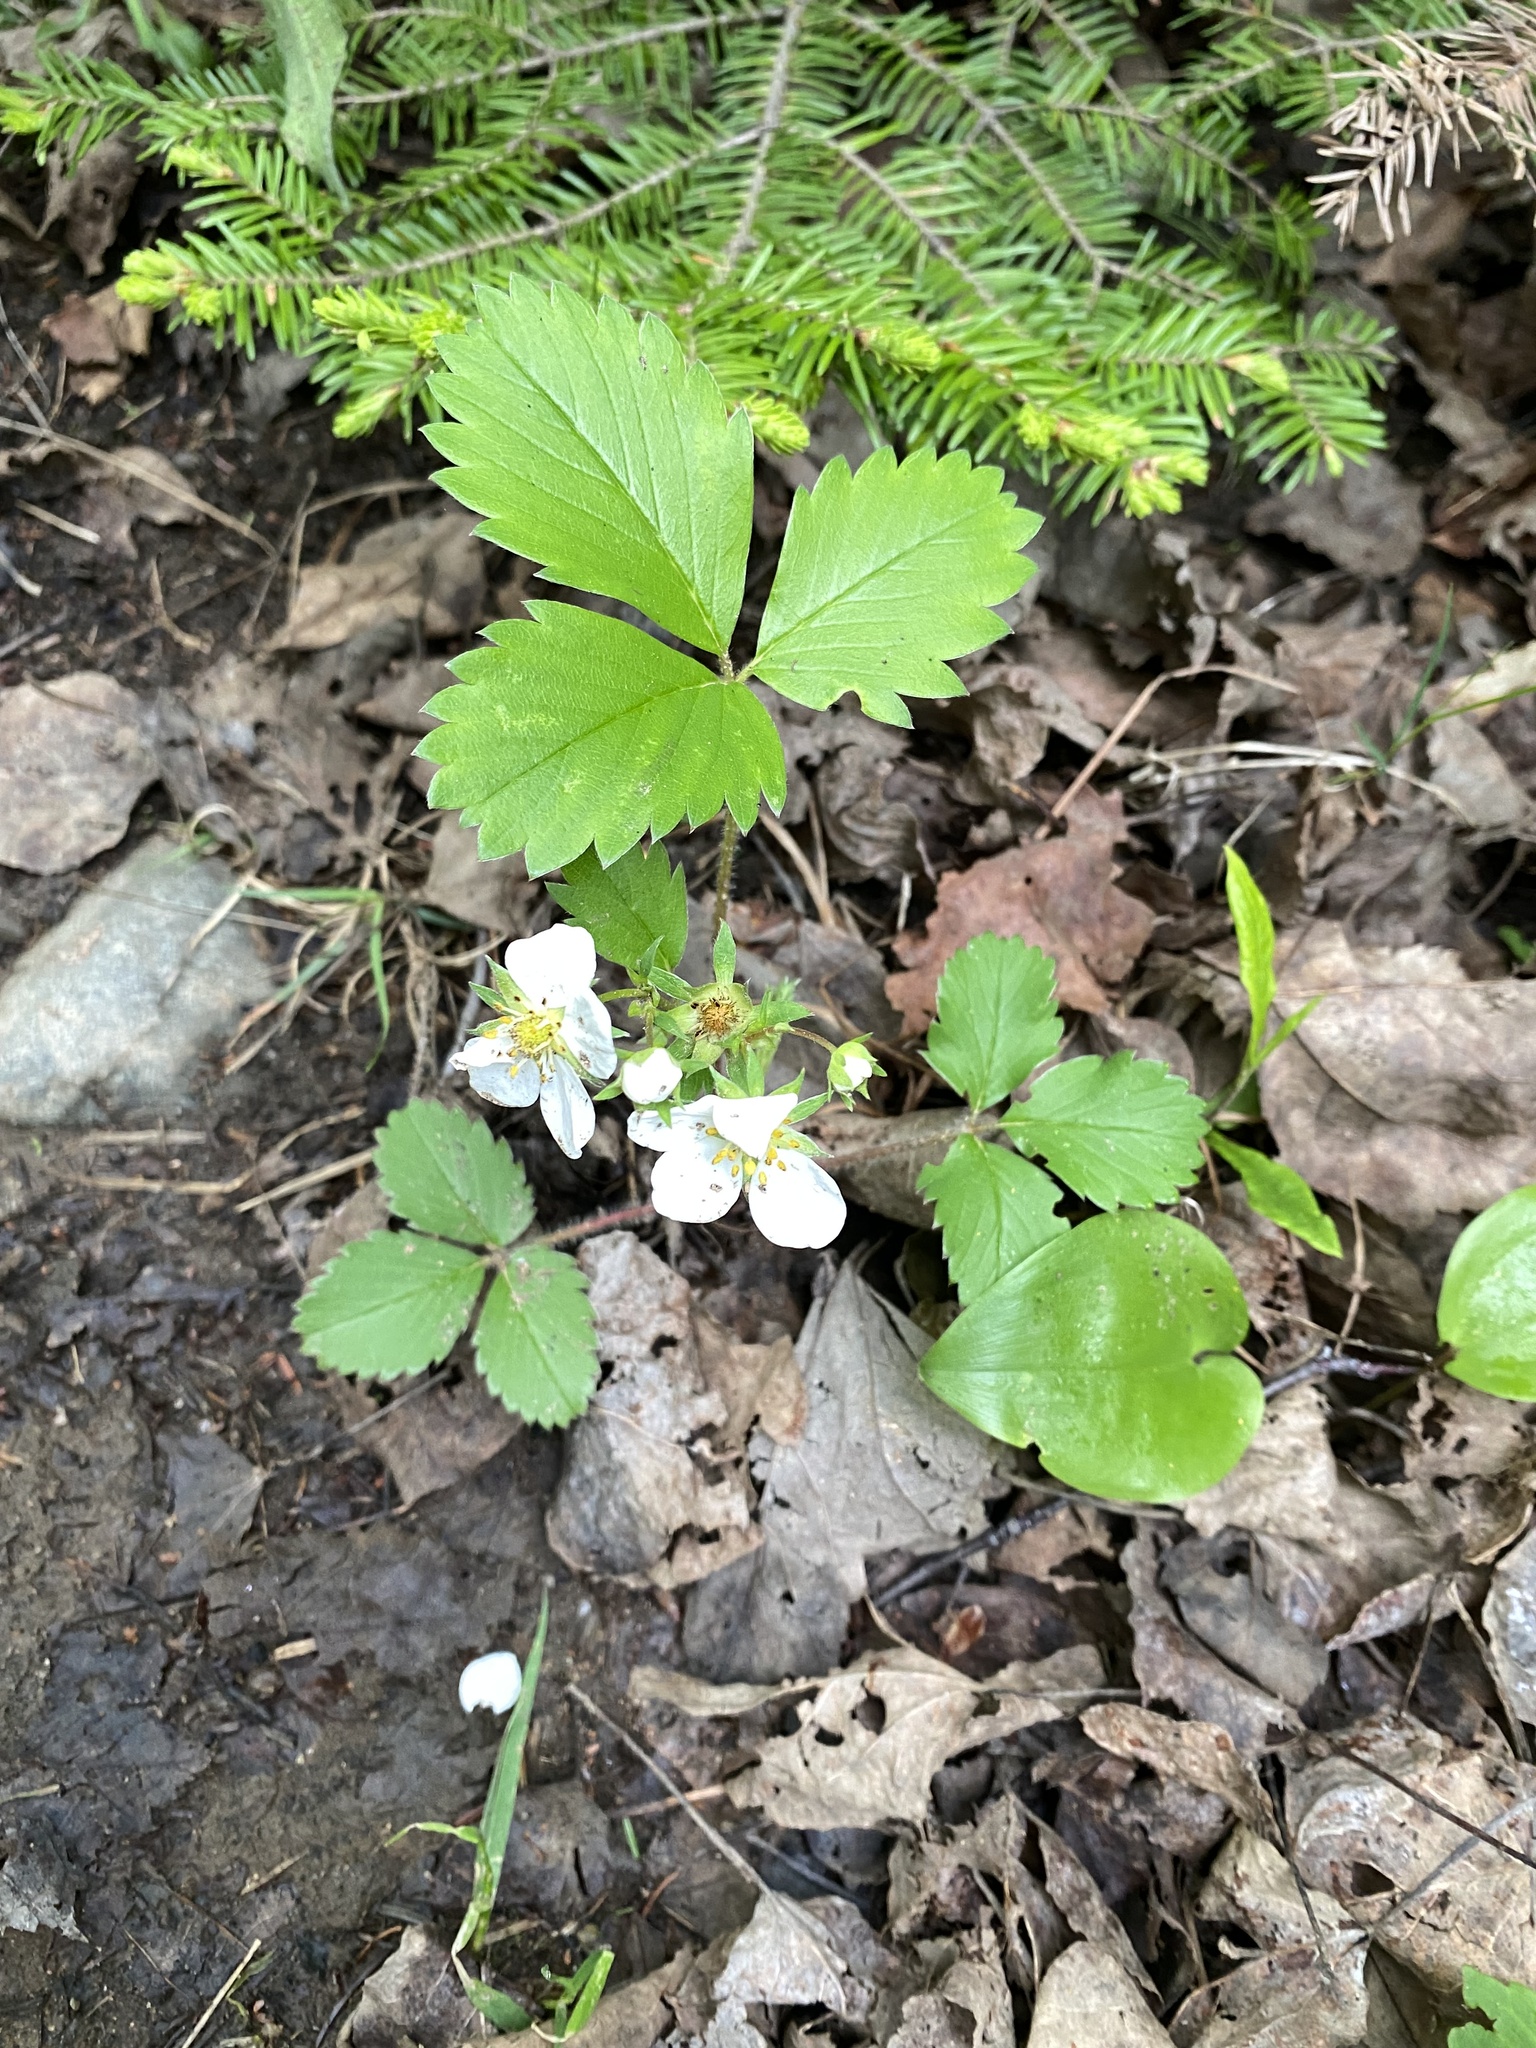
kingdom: Plantae
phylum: Tracheophyta
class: Magnoliopsida
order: Rosales
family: Rosaceae
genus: Fragaria
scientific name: Fragaria virginiana
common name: Thickleaved wild strawberry
